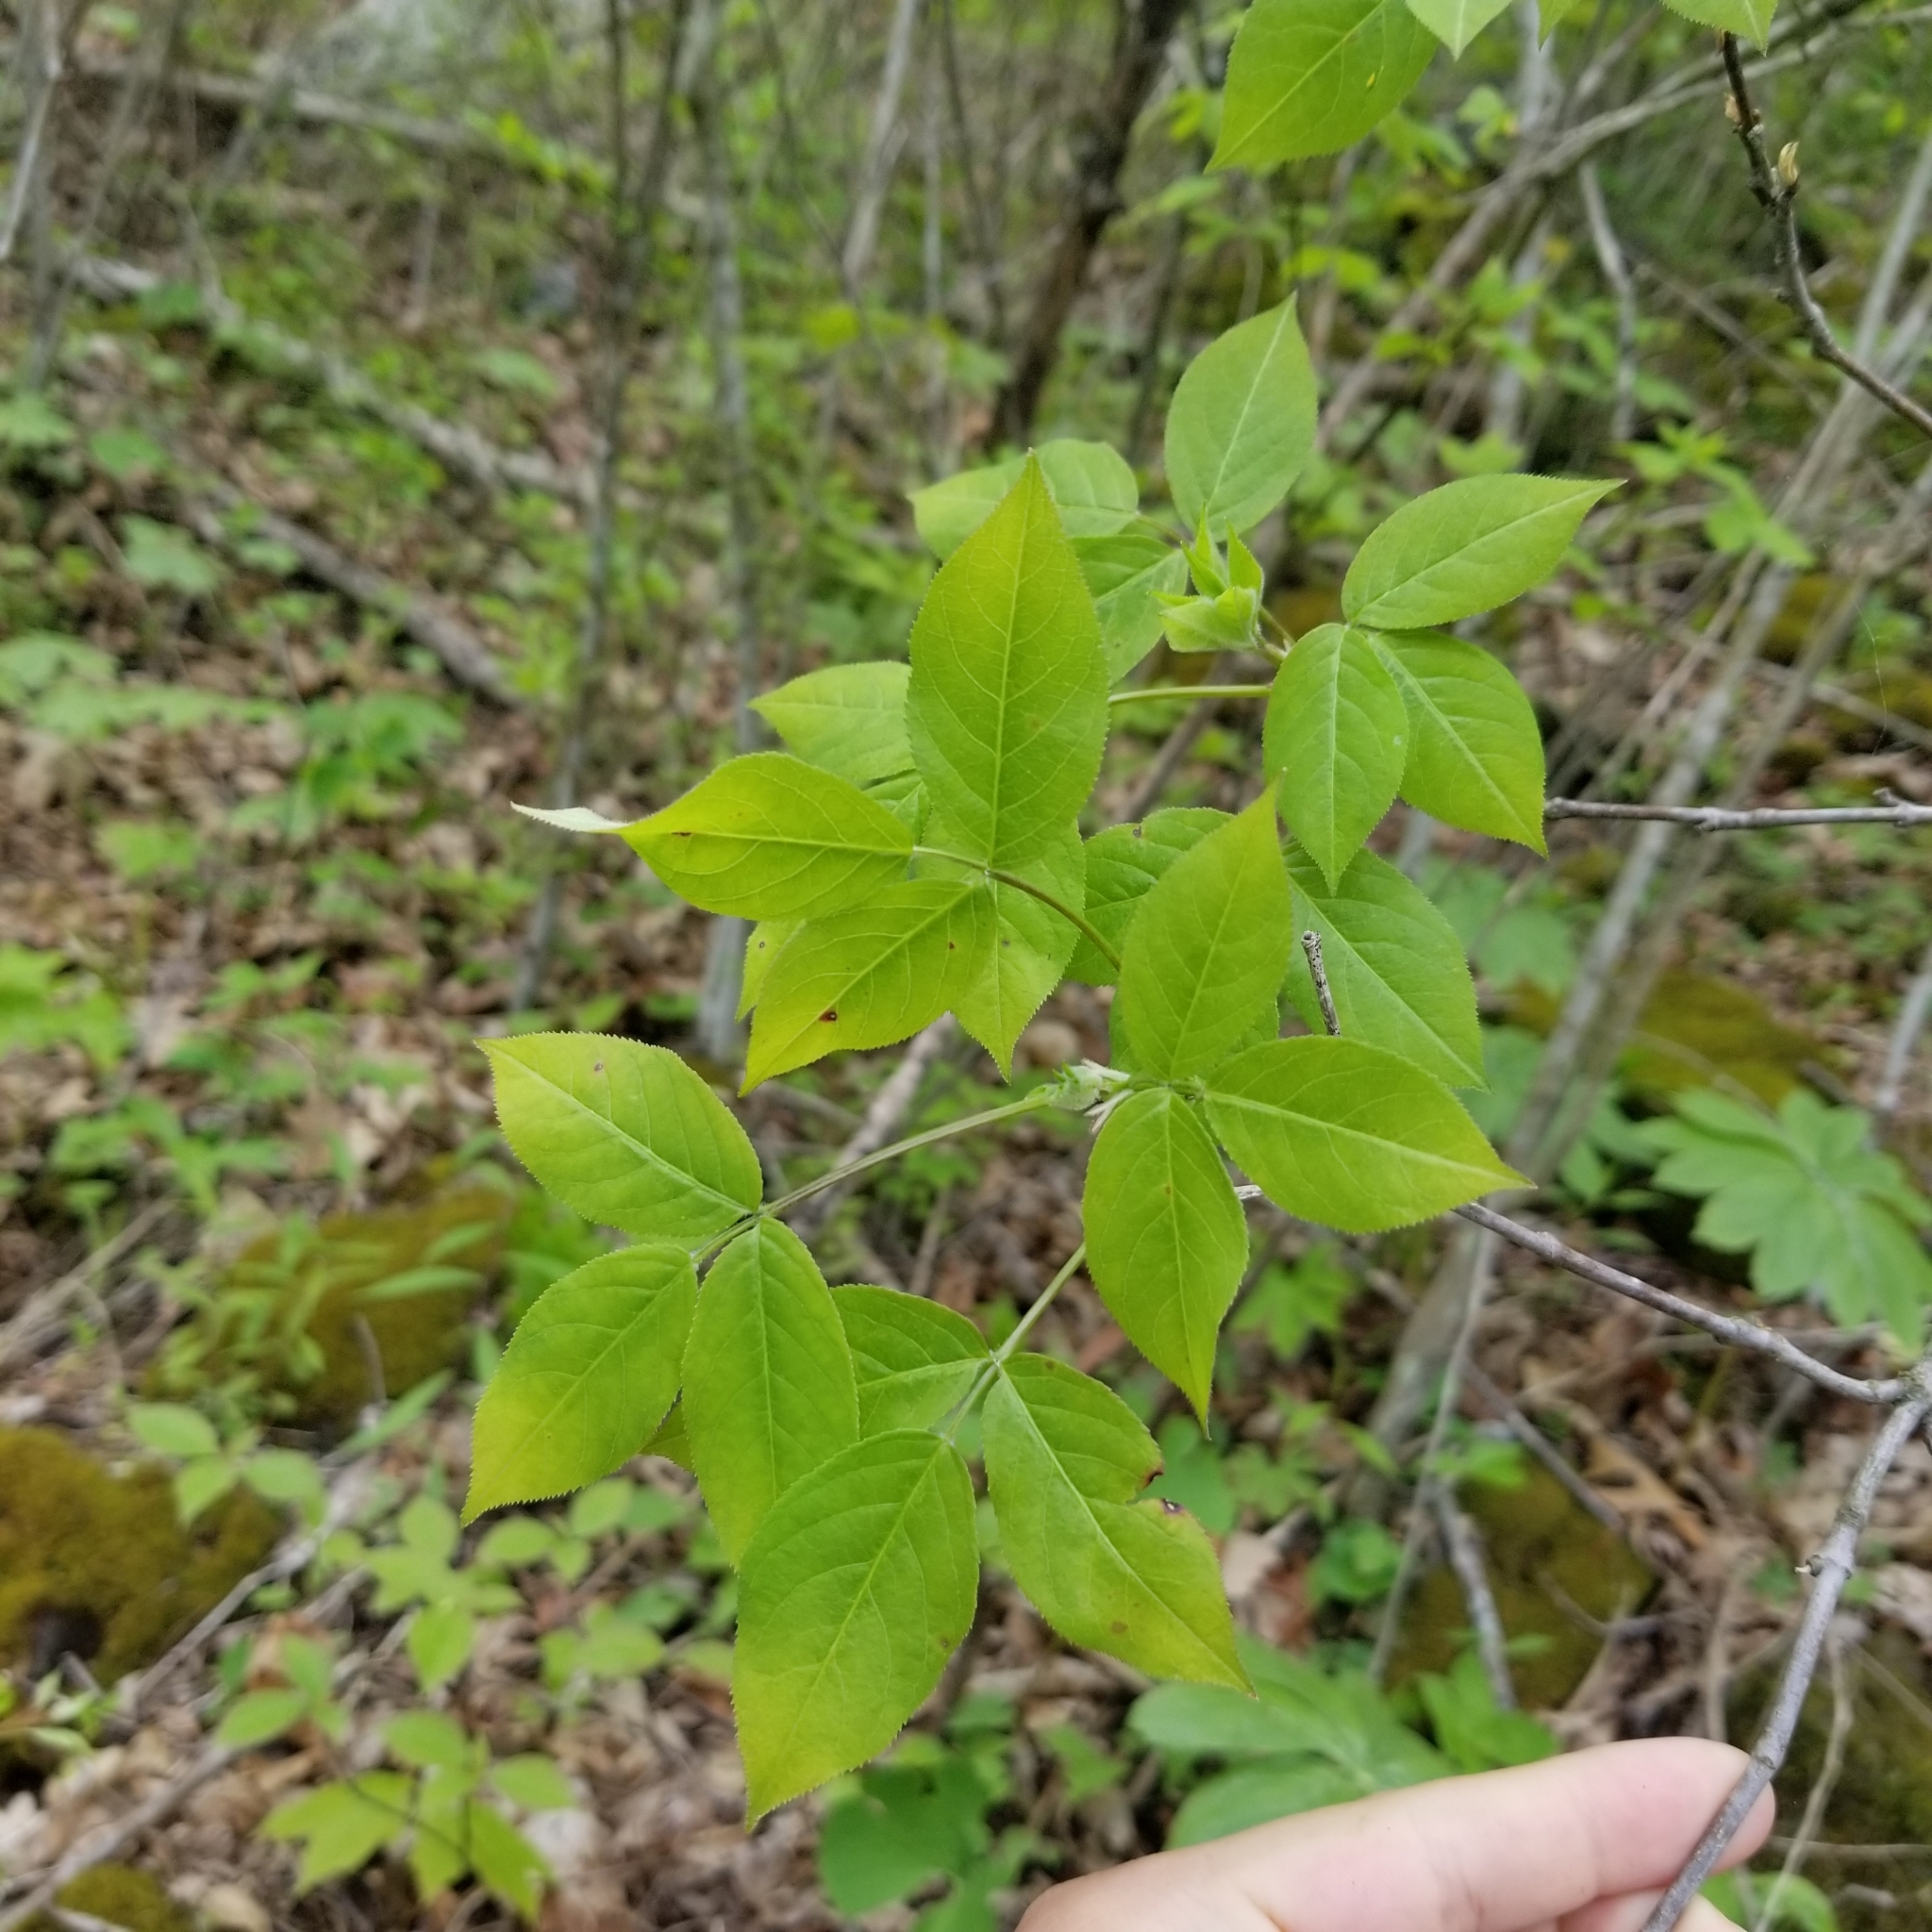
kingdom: Plantae
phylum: Tracheophyta
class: Magnoliopsida
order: Crossosomatales
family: Staphyleaceae
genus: Staphylea
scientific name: Staphylea trifolia
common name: American bladdernut
